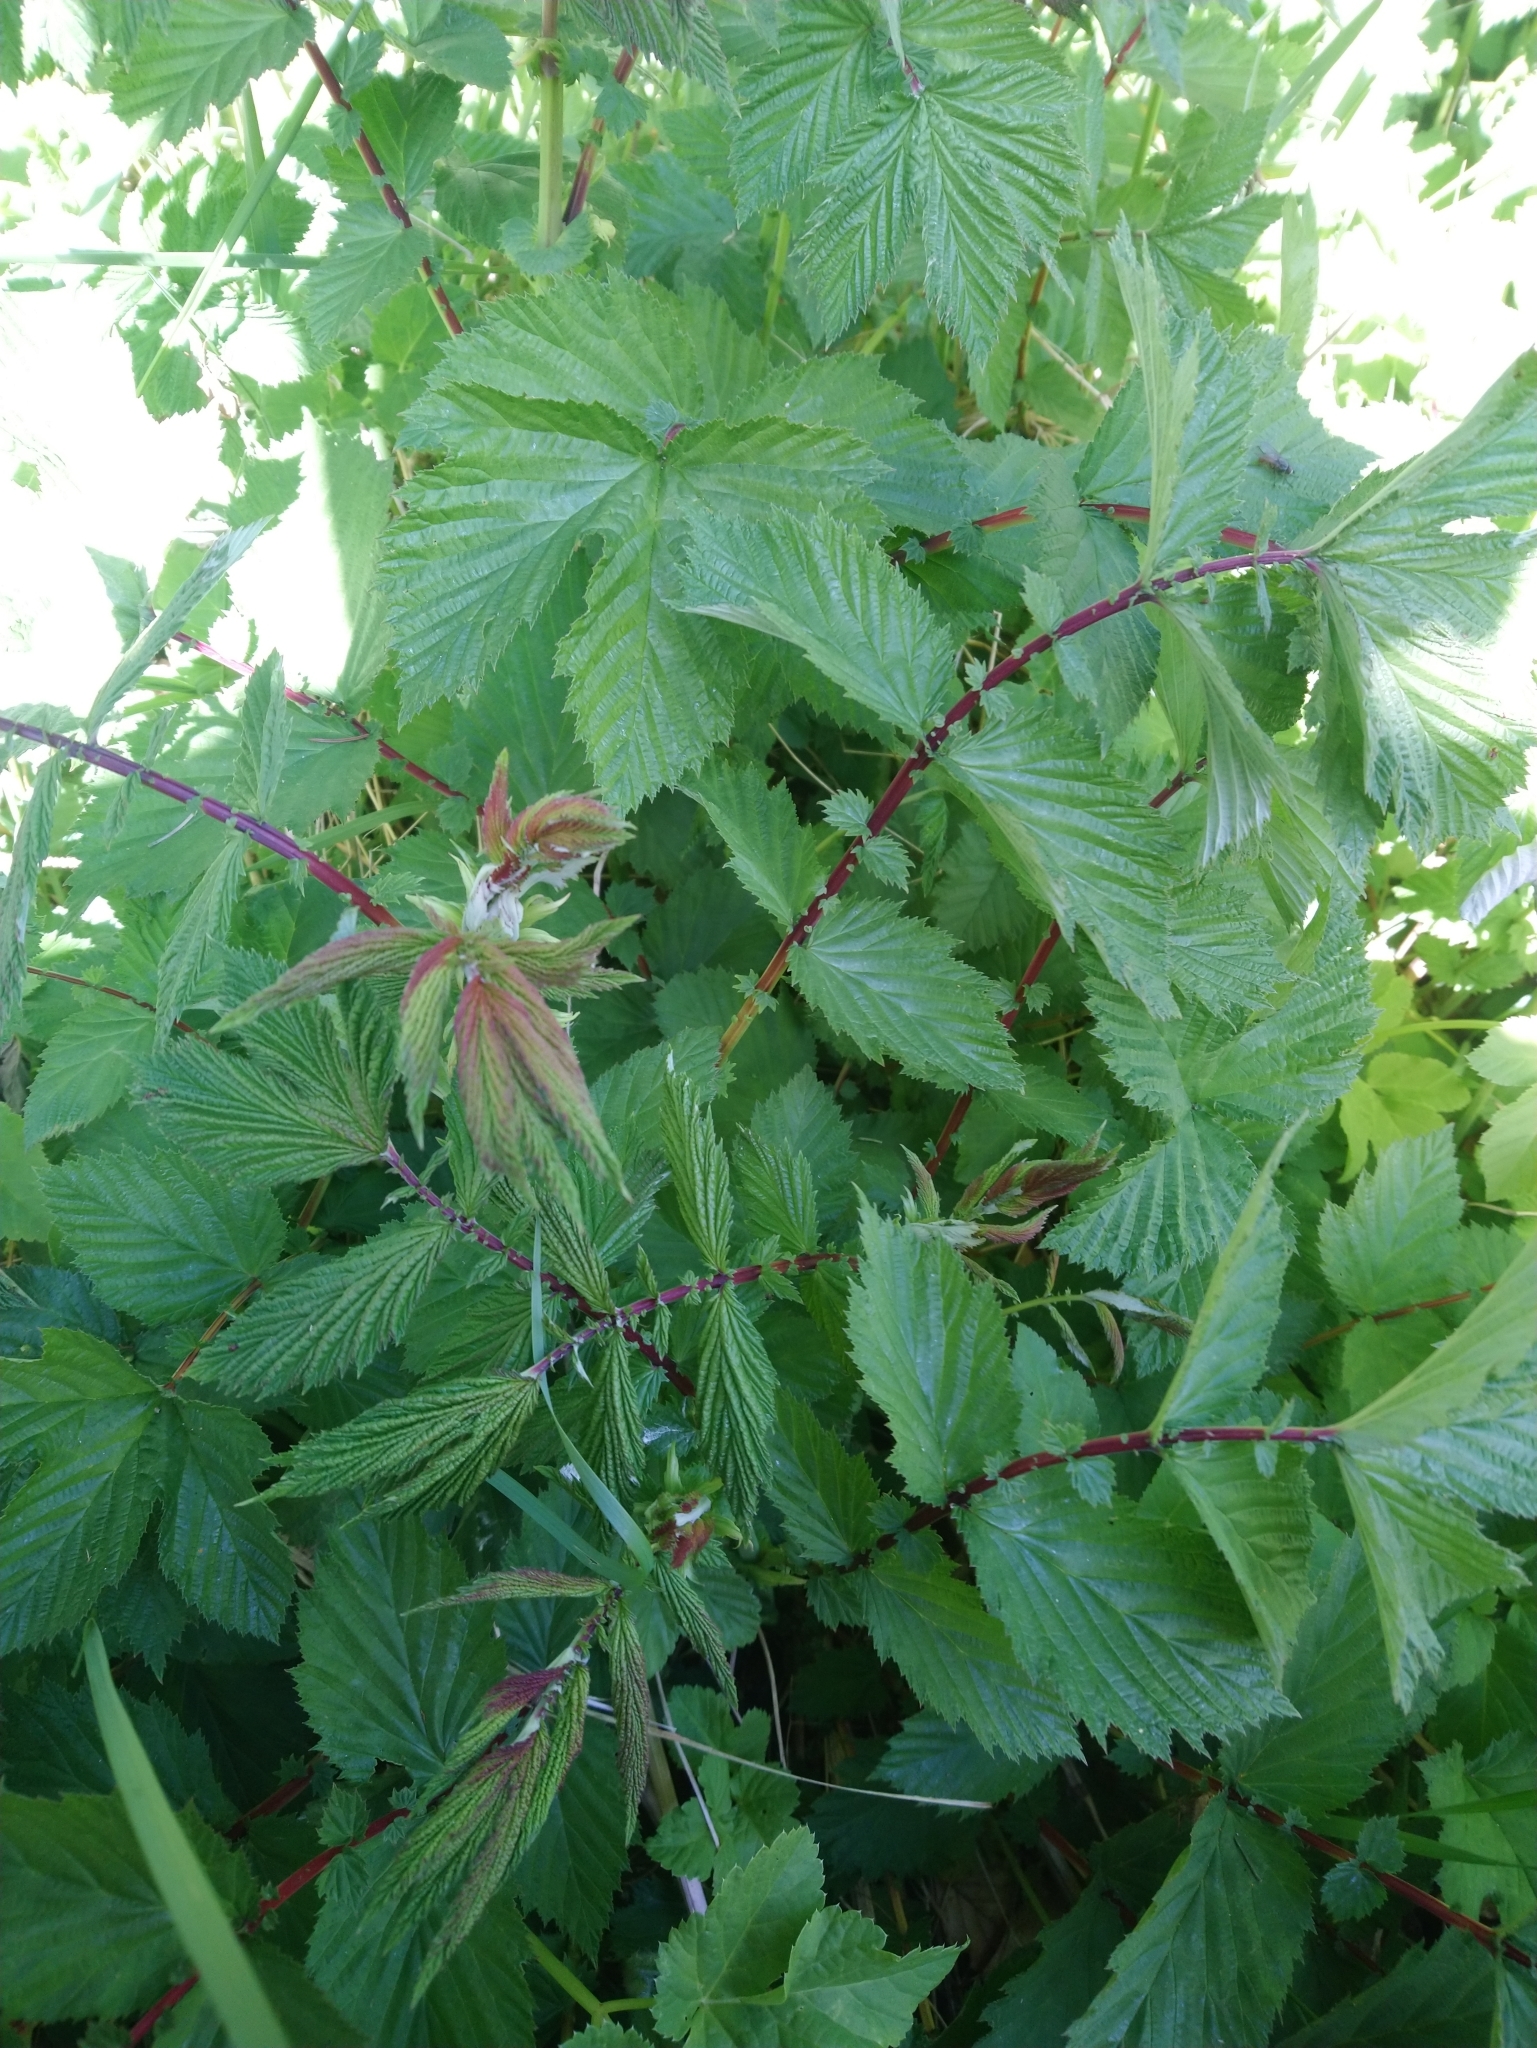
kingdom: Plantae
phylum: Tracheophyta
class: Magnoliopsida
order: Rosales
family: Rosaceae
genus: Filipendula
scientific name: Filipendula ulmaria
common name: Meadowsweet
